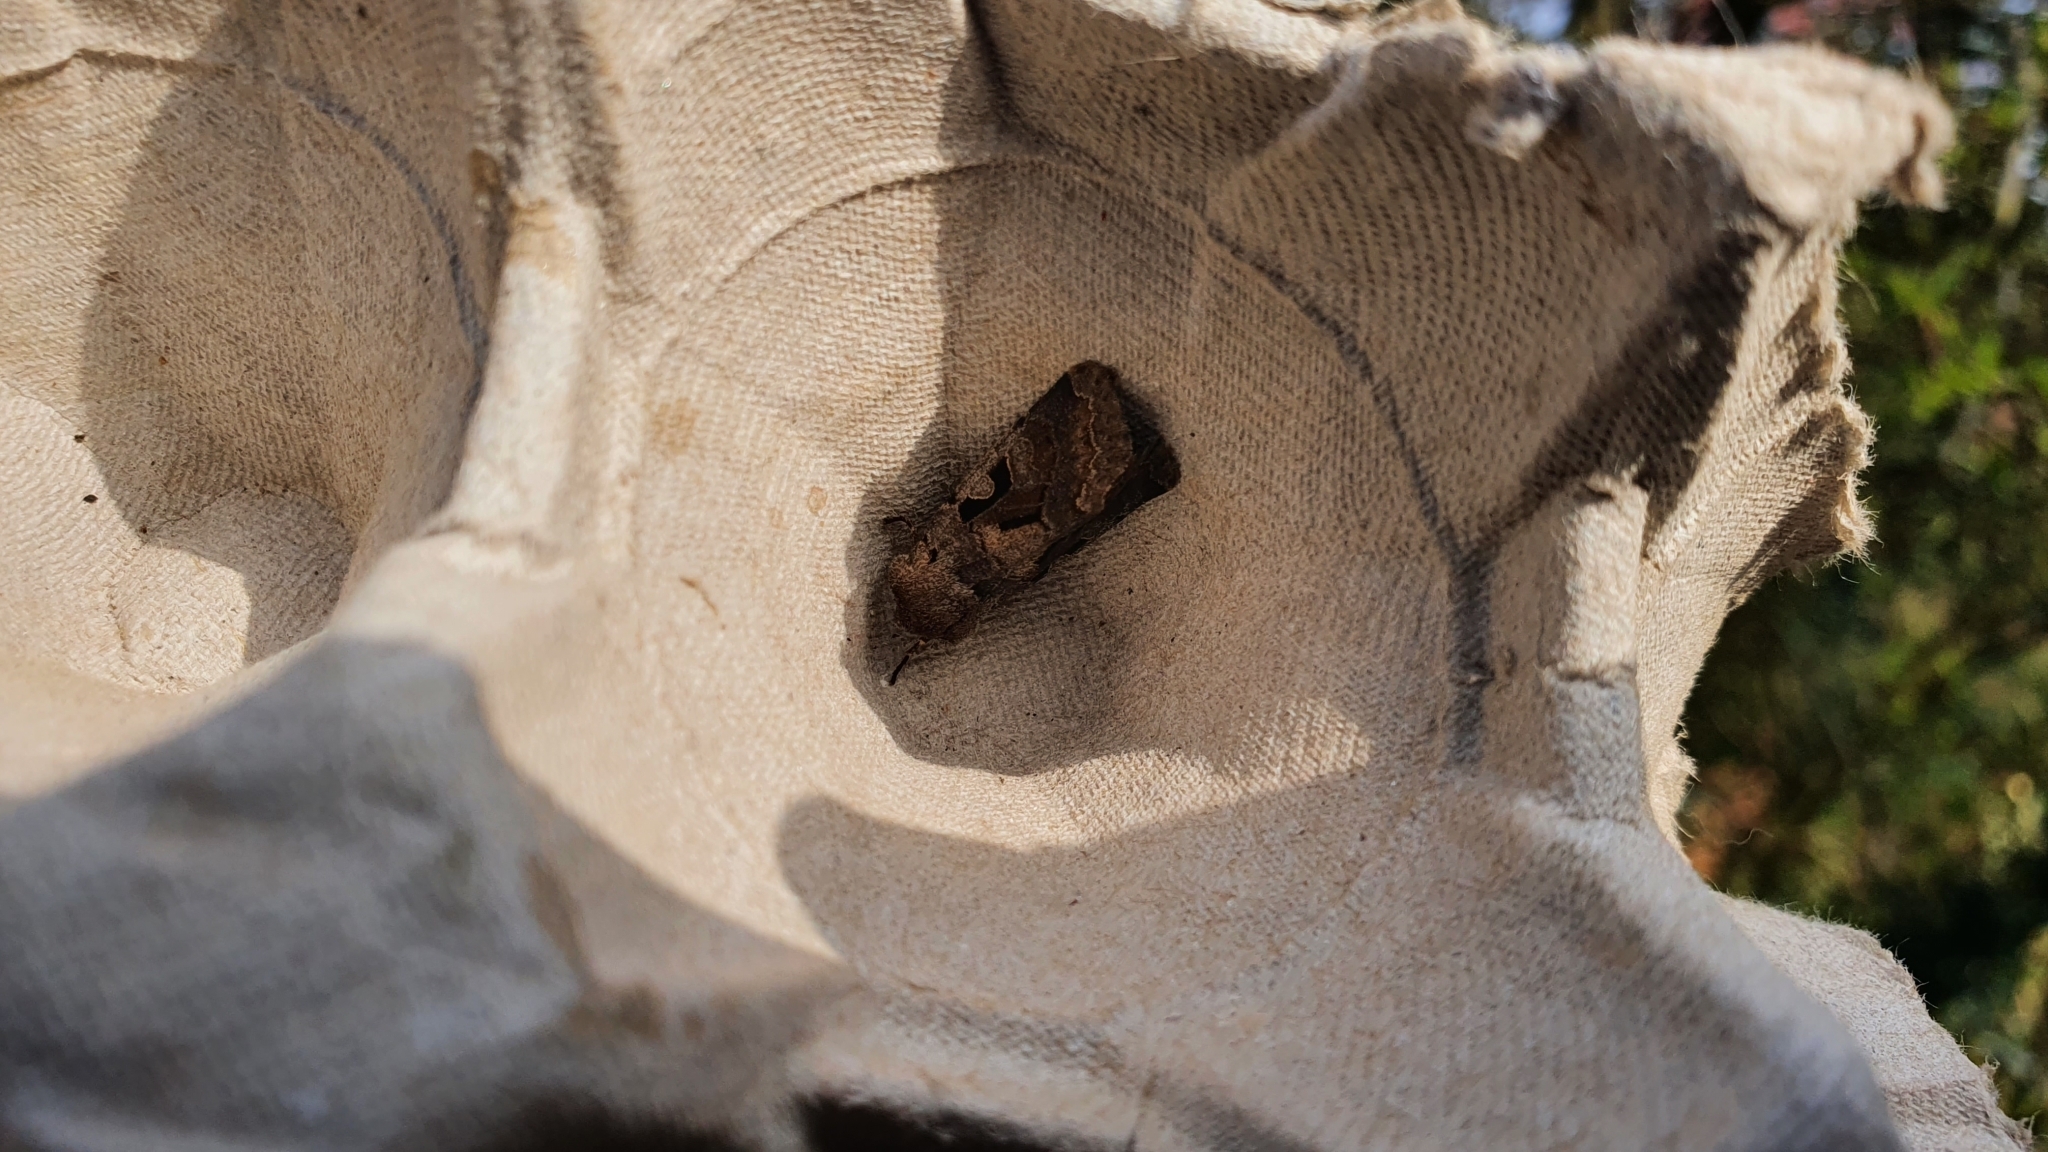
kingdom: Animalia
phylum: Arthropoda
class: Insecta
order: Lepidoptera
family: Noctuidae
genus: Orthosia
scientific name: Orthosia gothica
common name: Hebrew character
